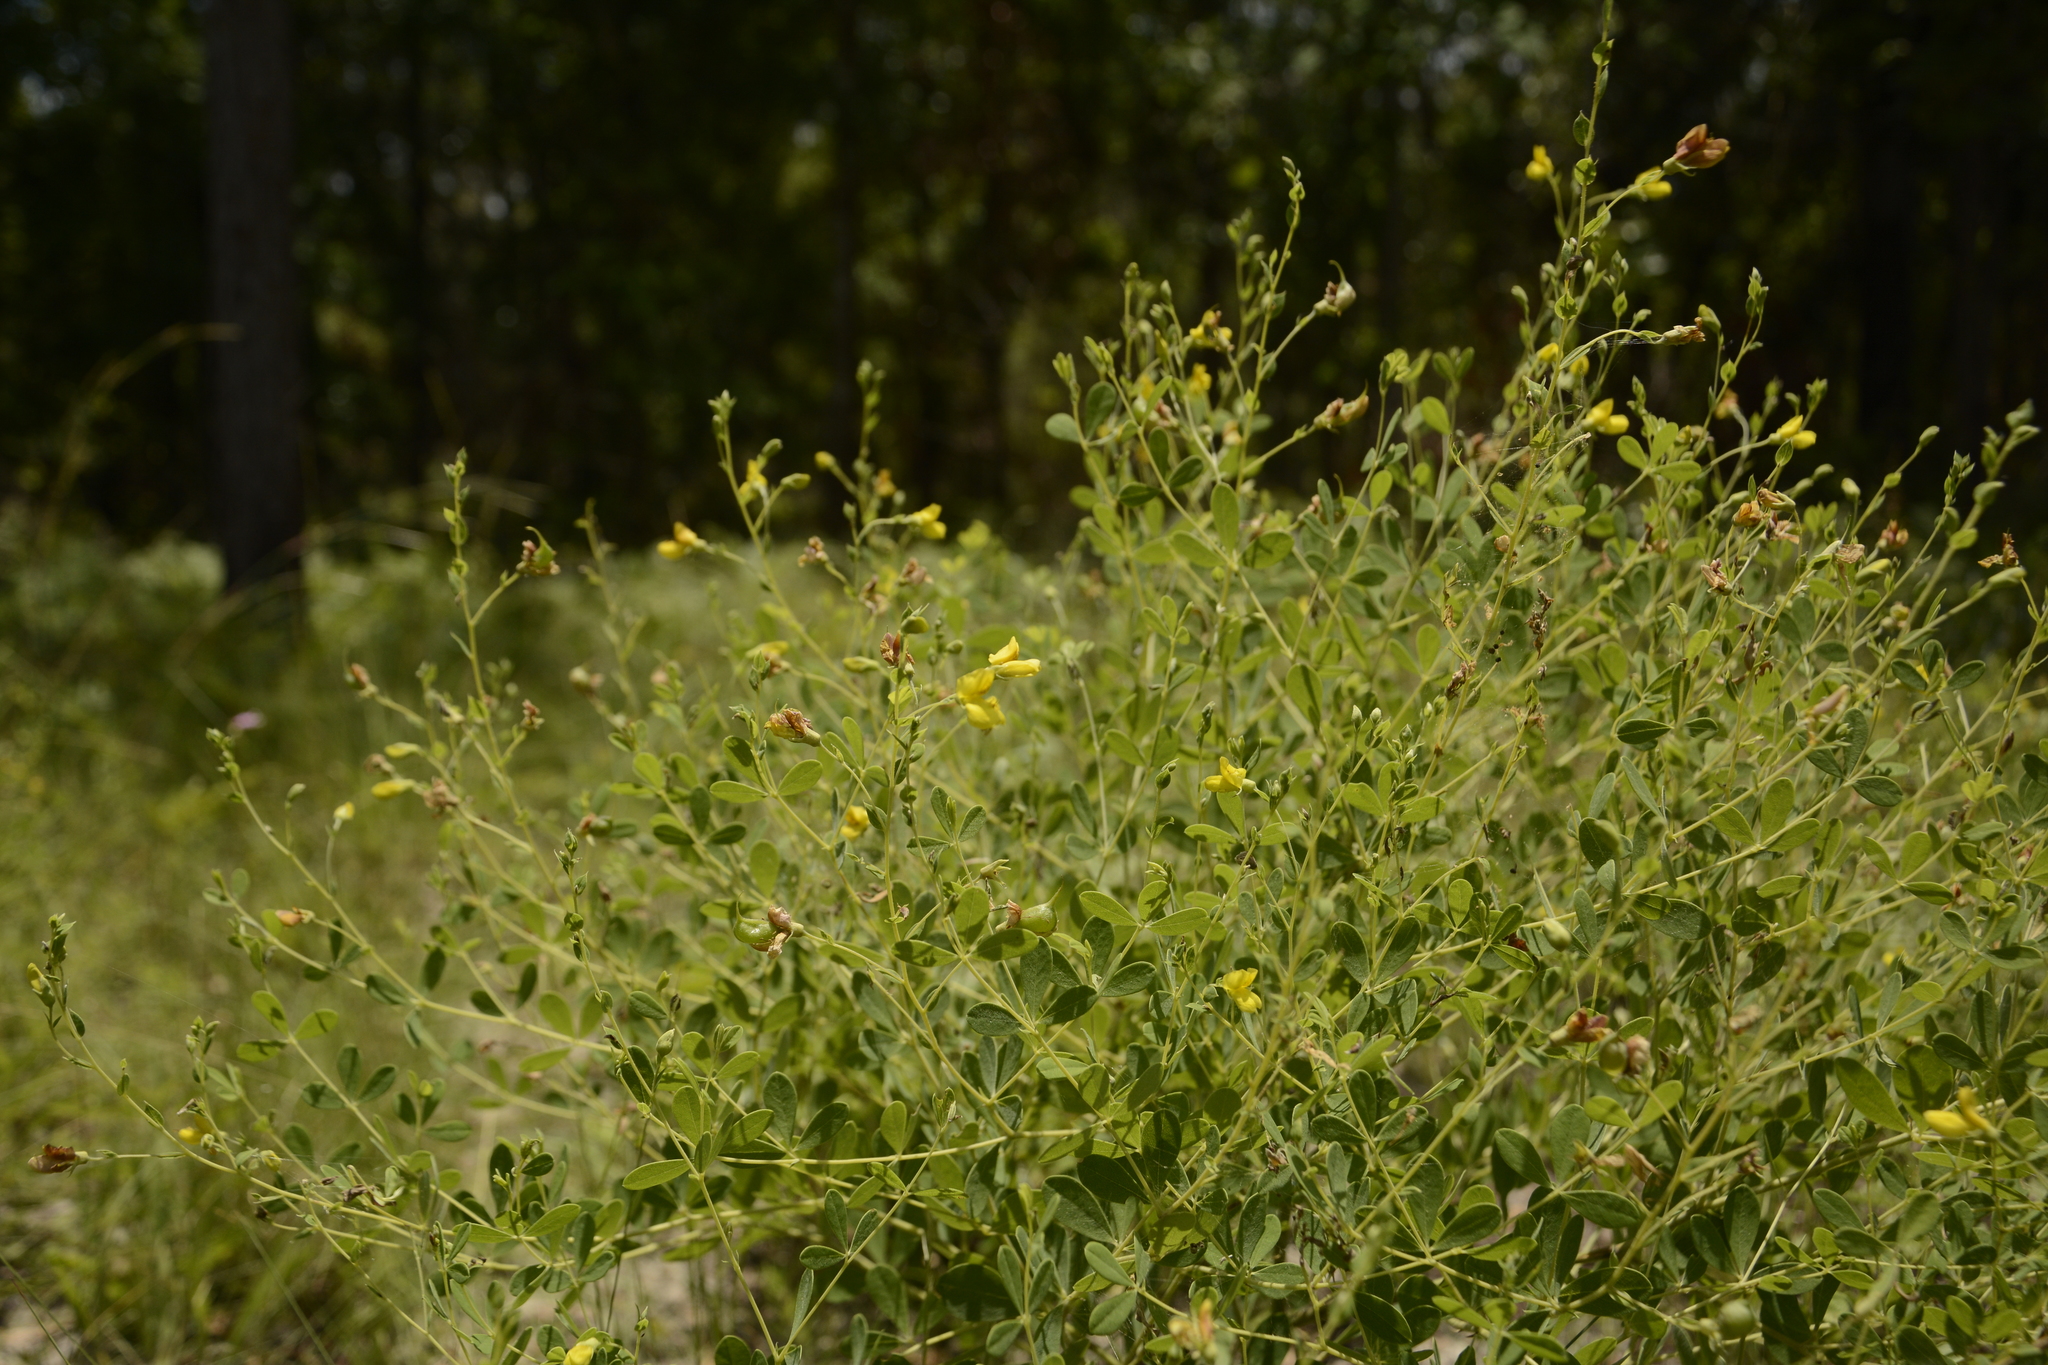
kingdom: Plantae
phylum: Tracheophyta
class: Magnoliopsida
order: Fabales
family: Fabaceae
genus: Baptisia
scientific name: Baptisia lecontei
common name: Pineland wild indigo
